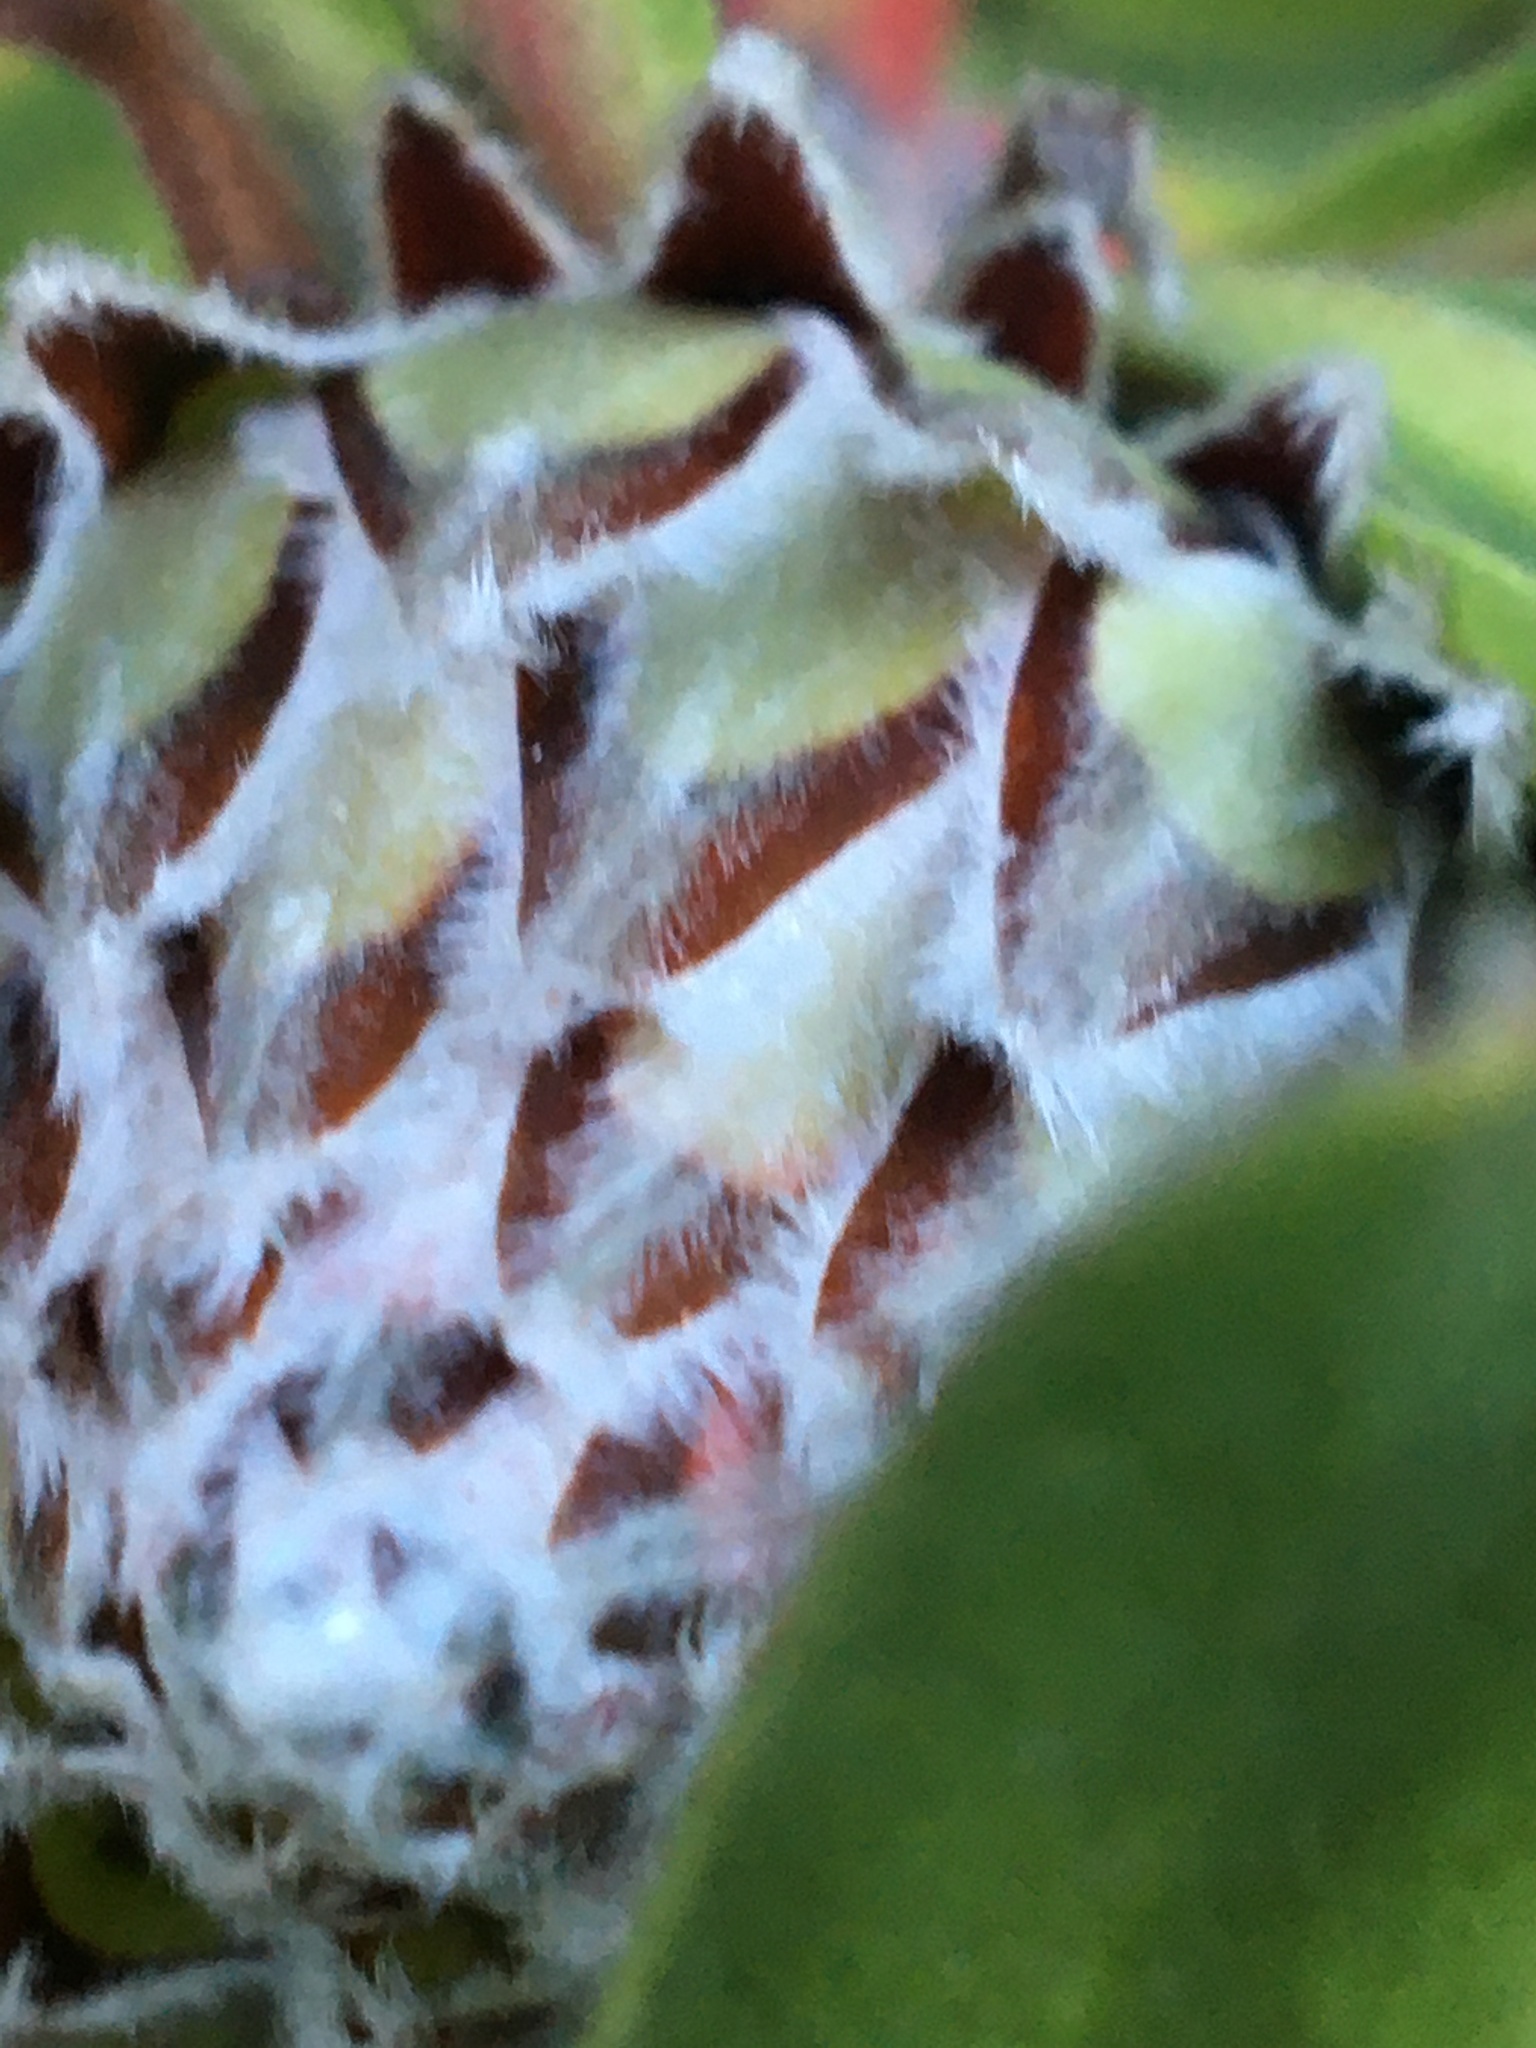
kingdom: Plantae
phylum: Tracheophyta
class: Magnoliopsida
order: Proteales
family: Proteaceae
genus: Protea
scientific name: Protea
